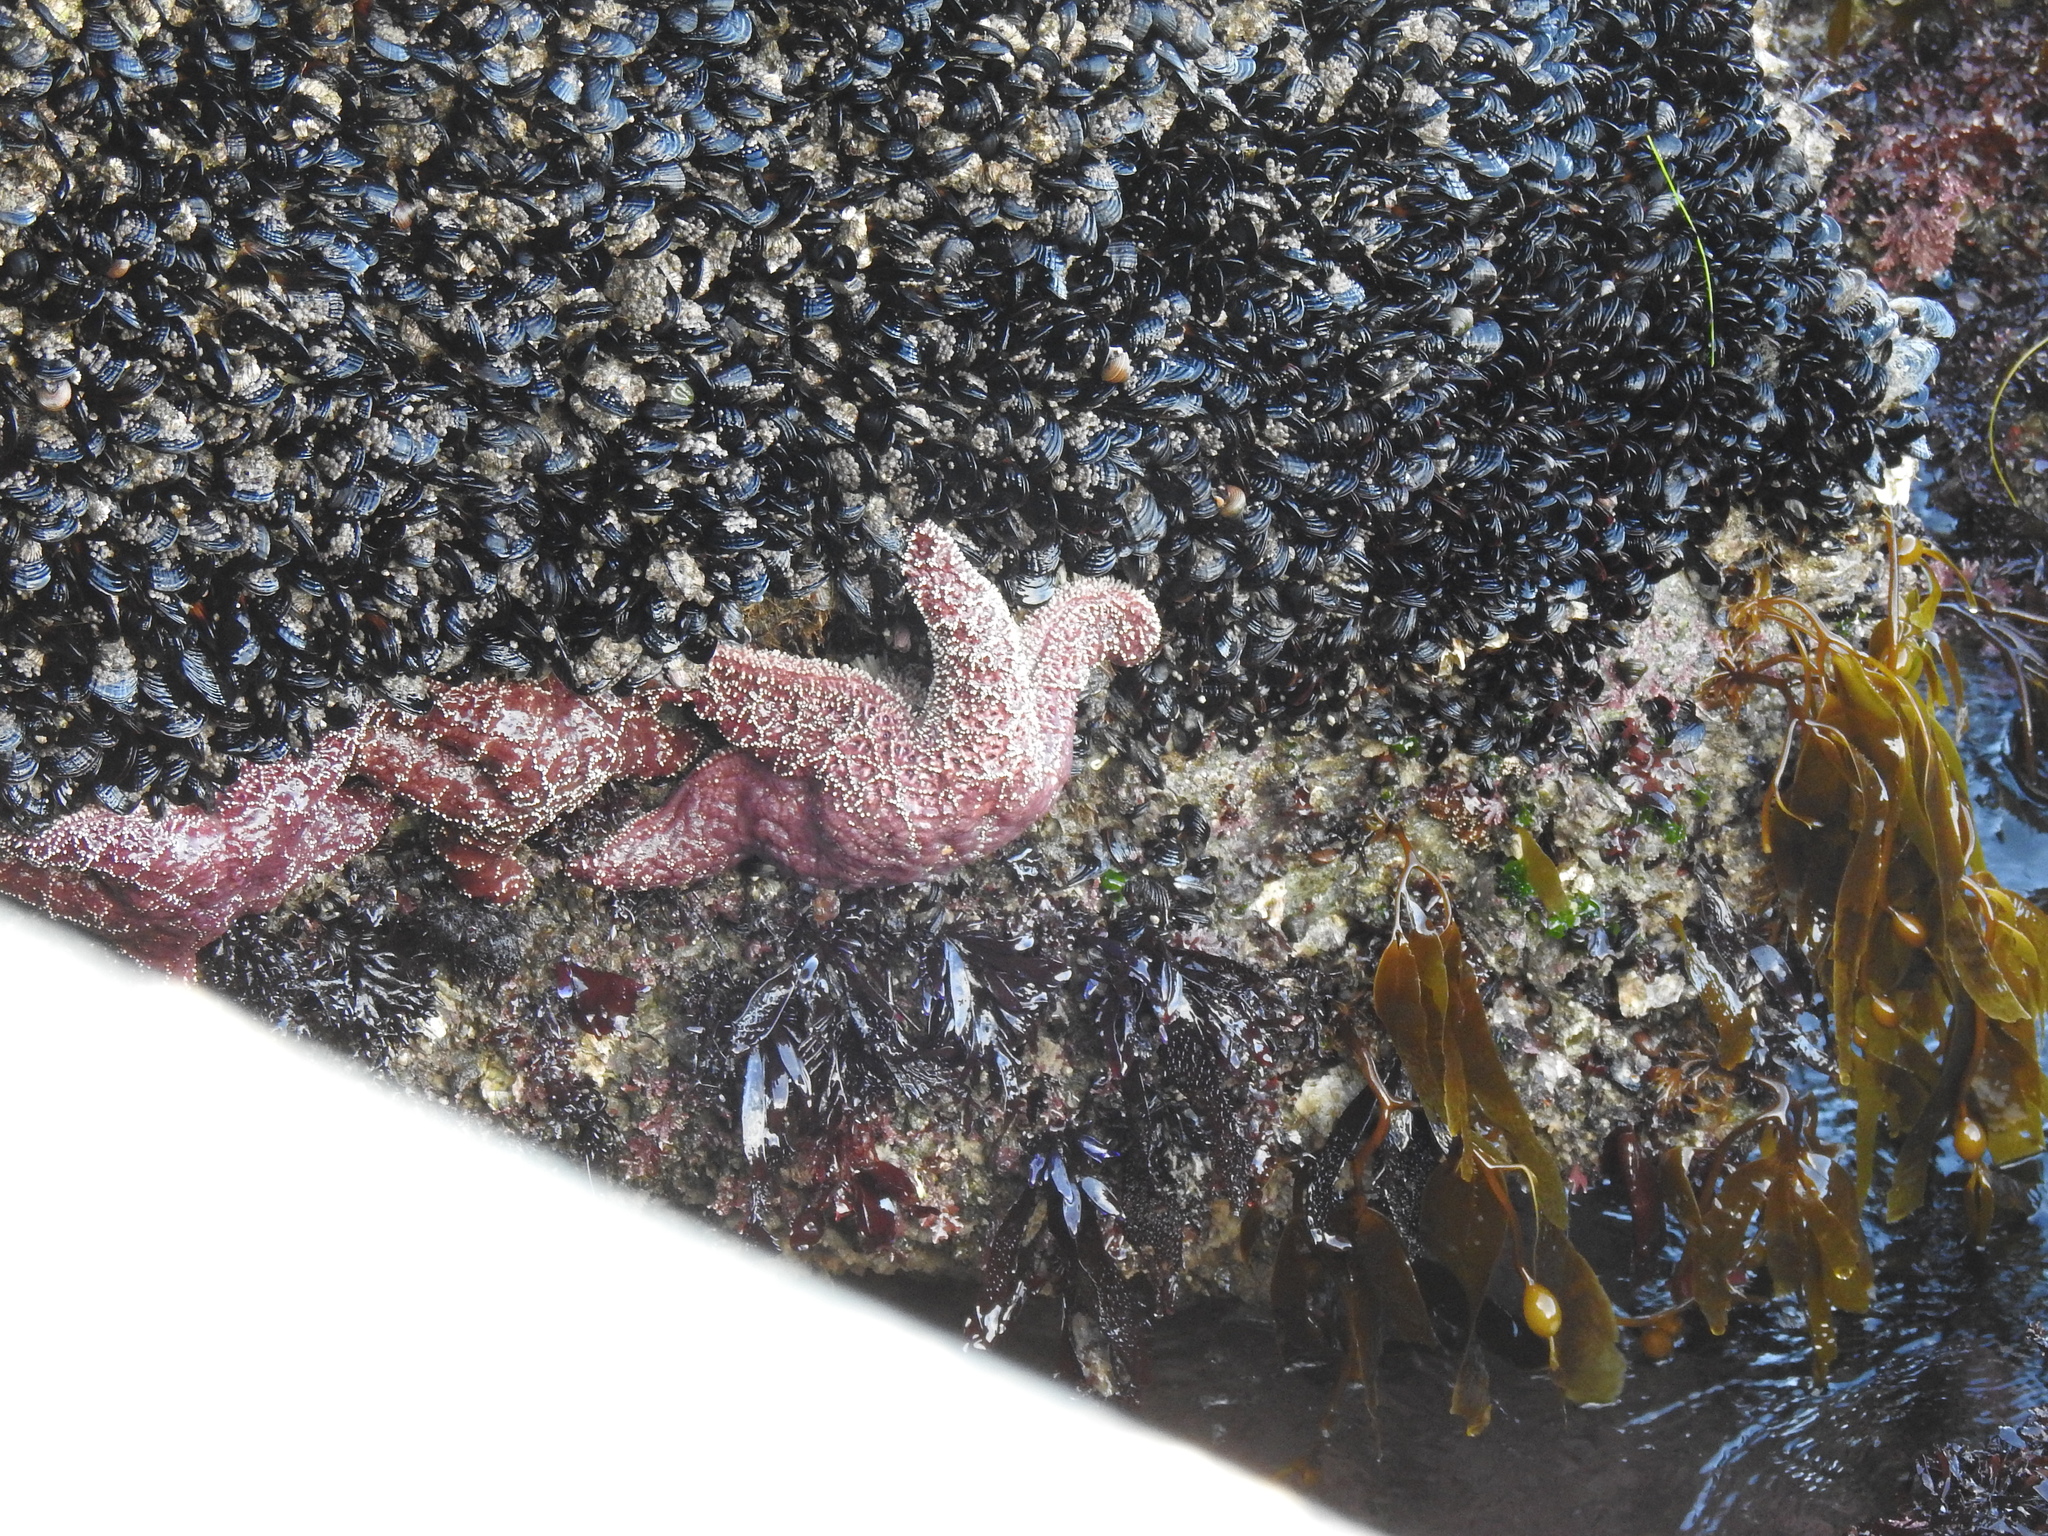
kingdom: Animalia
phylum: Echinodermata
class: Asteroidea
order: Forcipulatida
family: Asteriidae
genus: Pisaster
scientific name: Pisaster ochraceus
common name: Ochre stars
